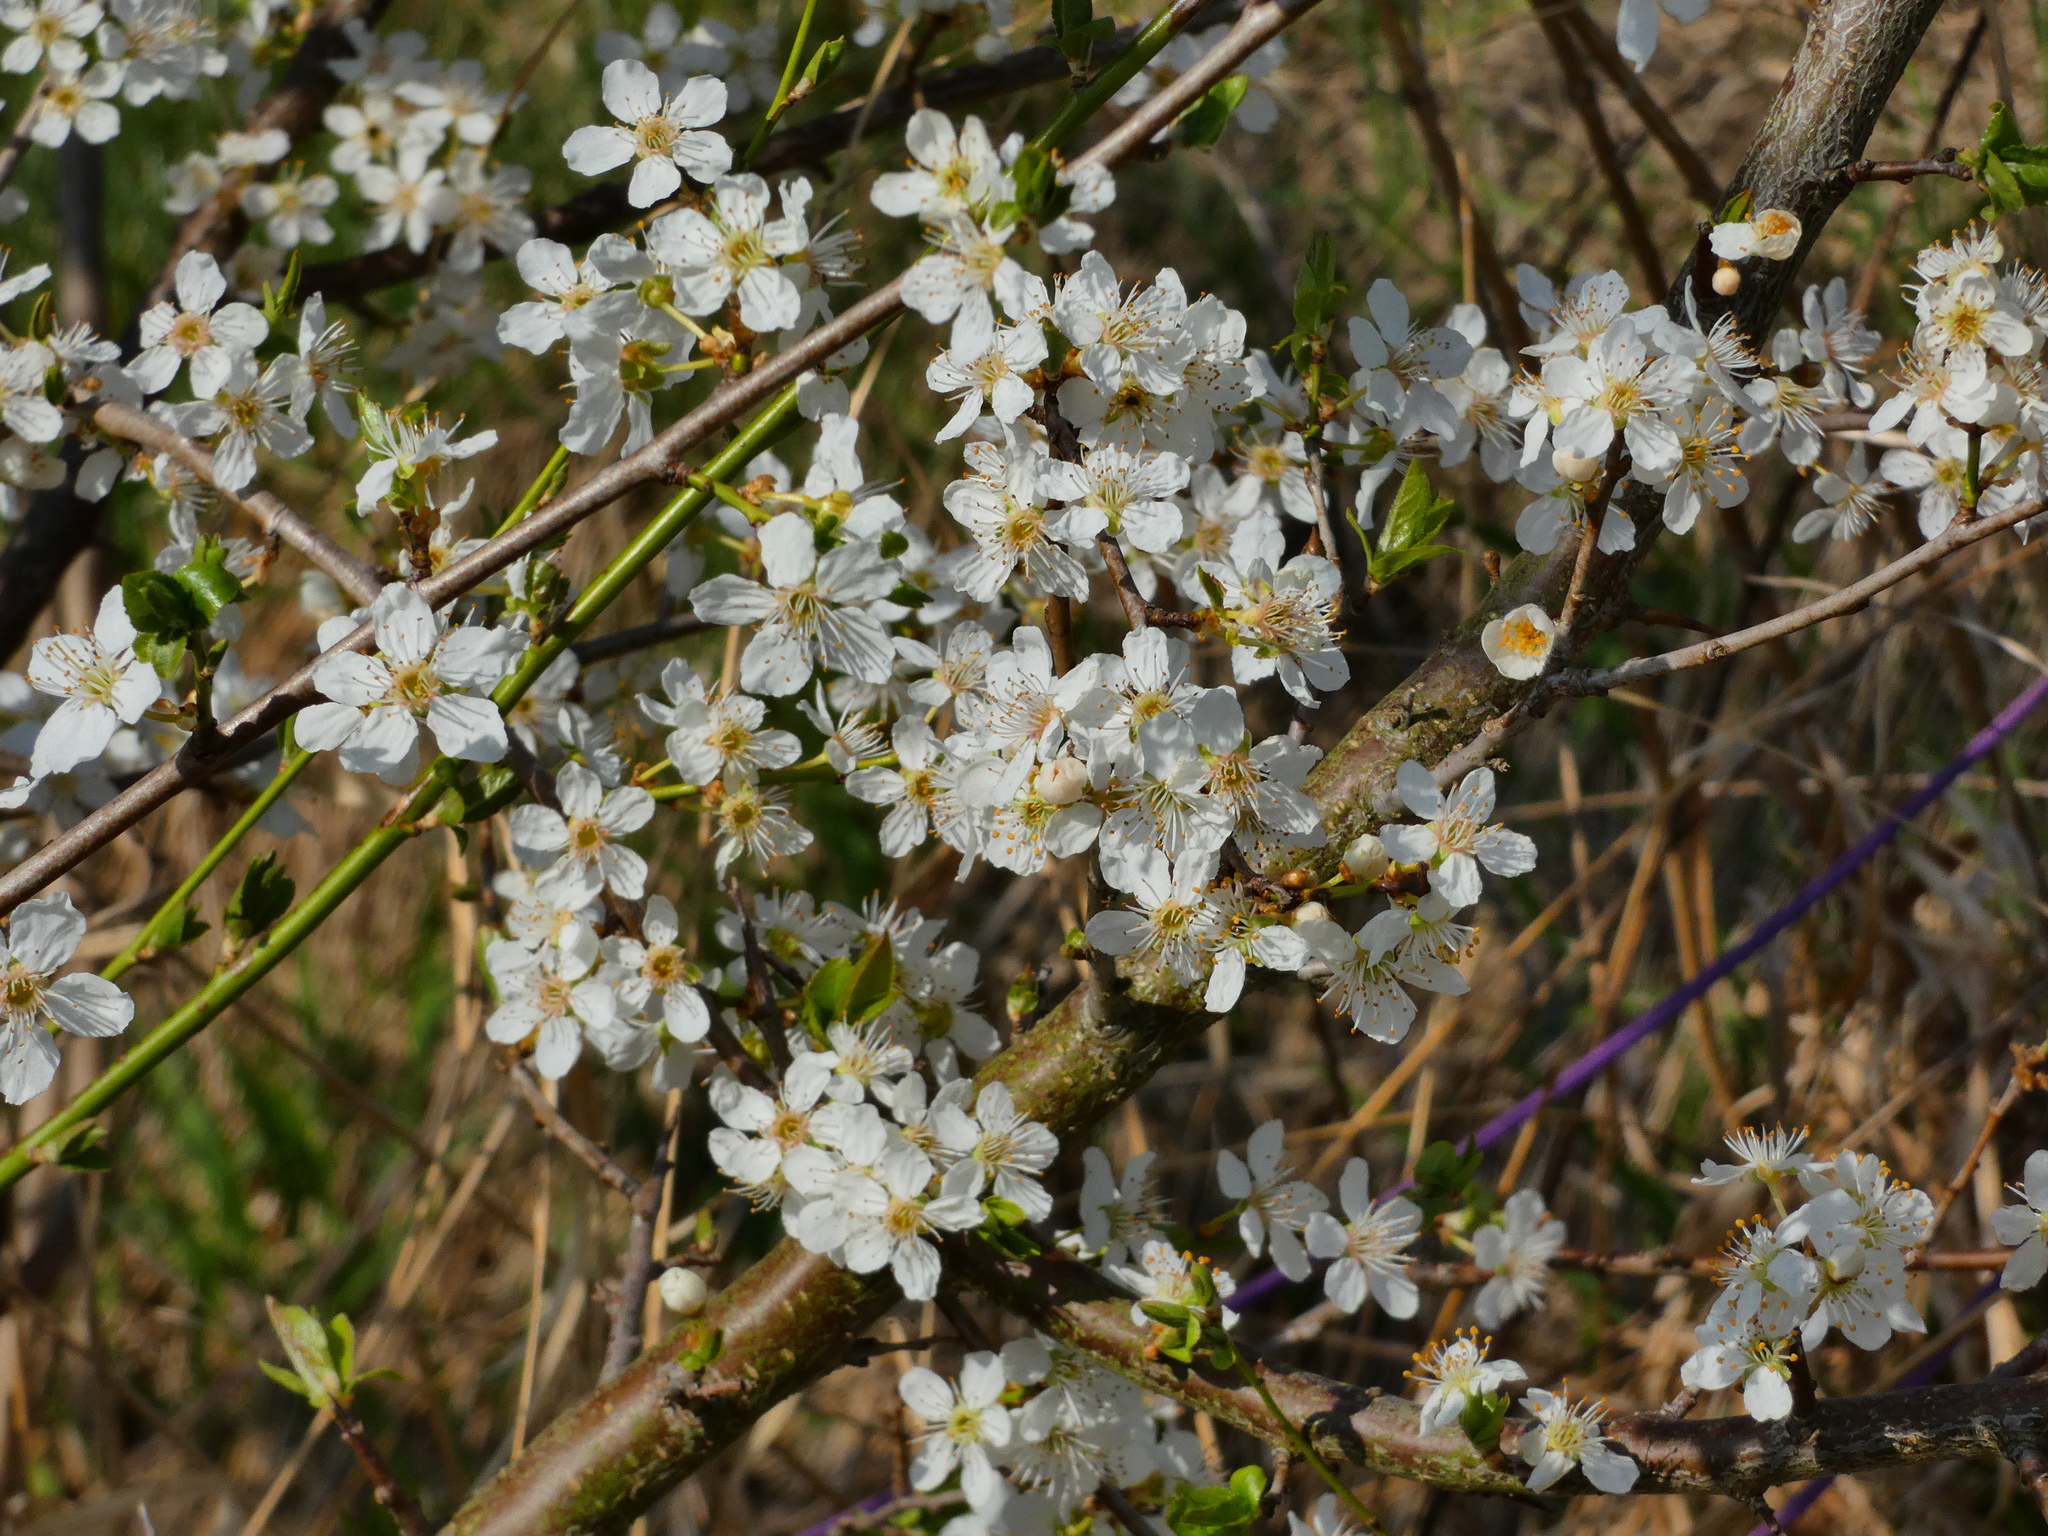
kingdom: Plantae
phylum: Tracheophyta
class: Magnoliopsida
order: Rosales
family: Rosaceae
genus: Prunus
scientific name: Prunus cerasifera
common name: Cherry plum
